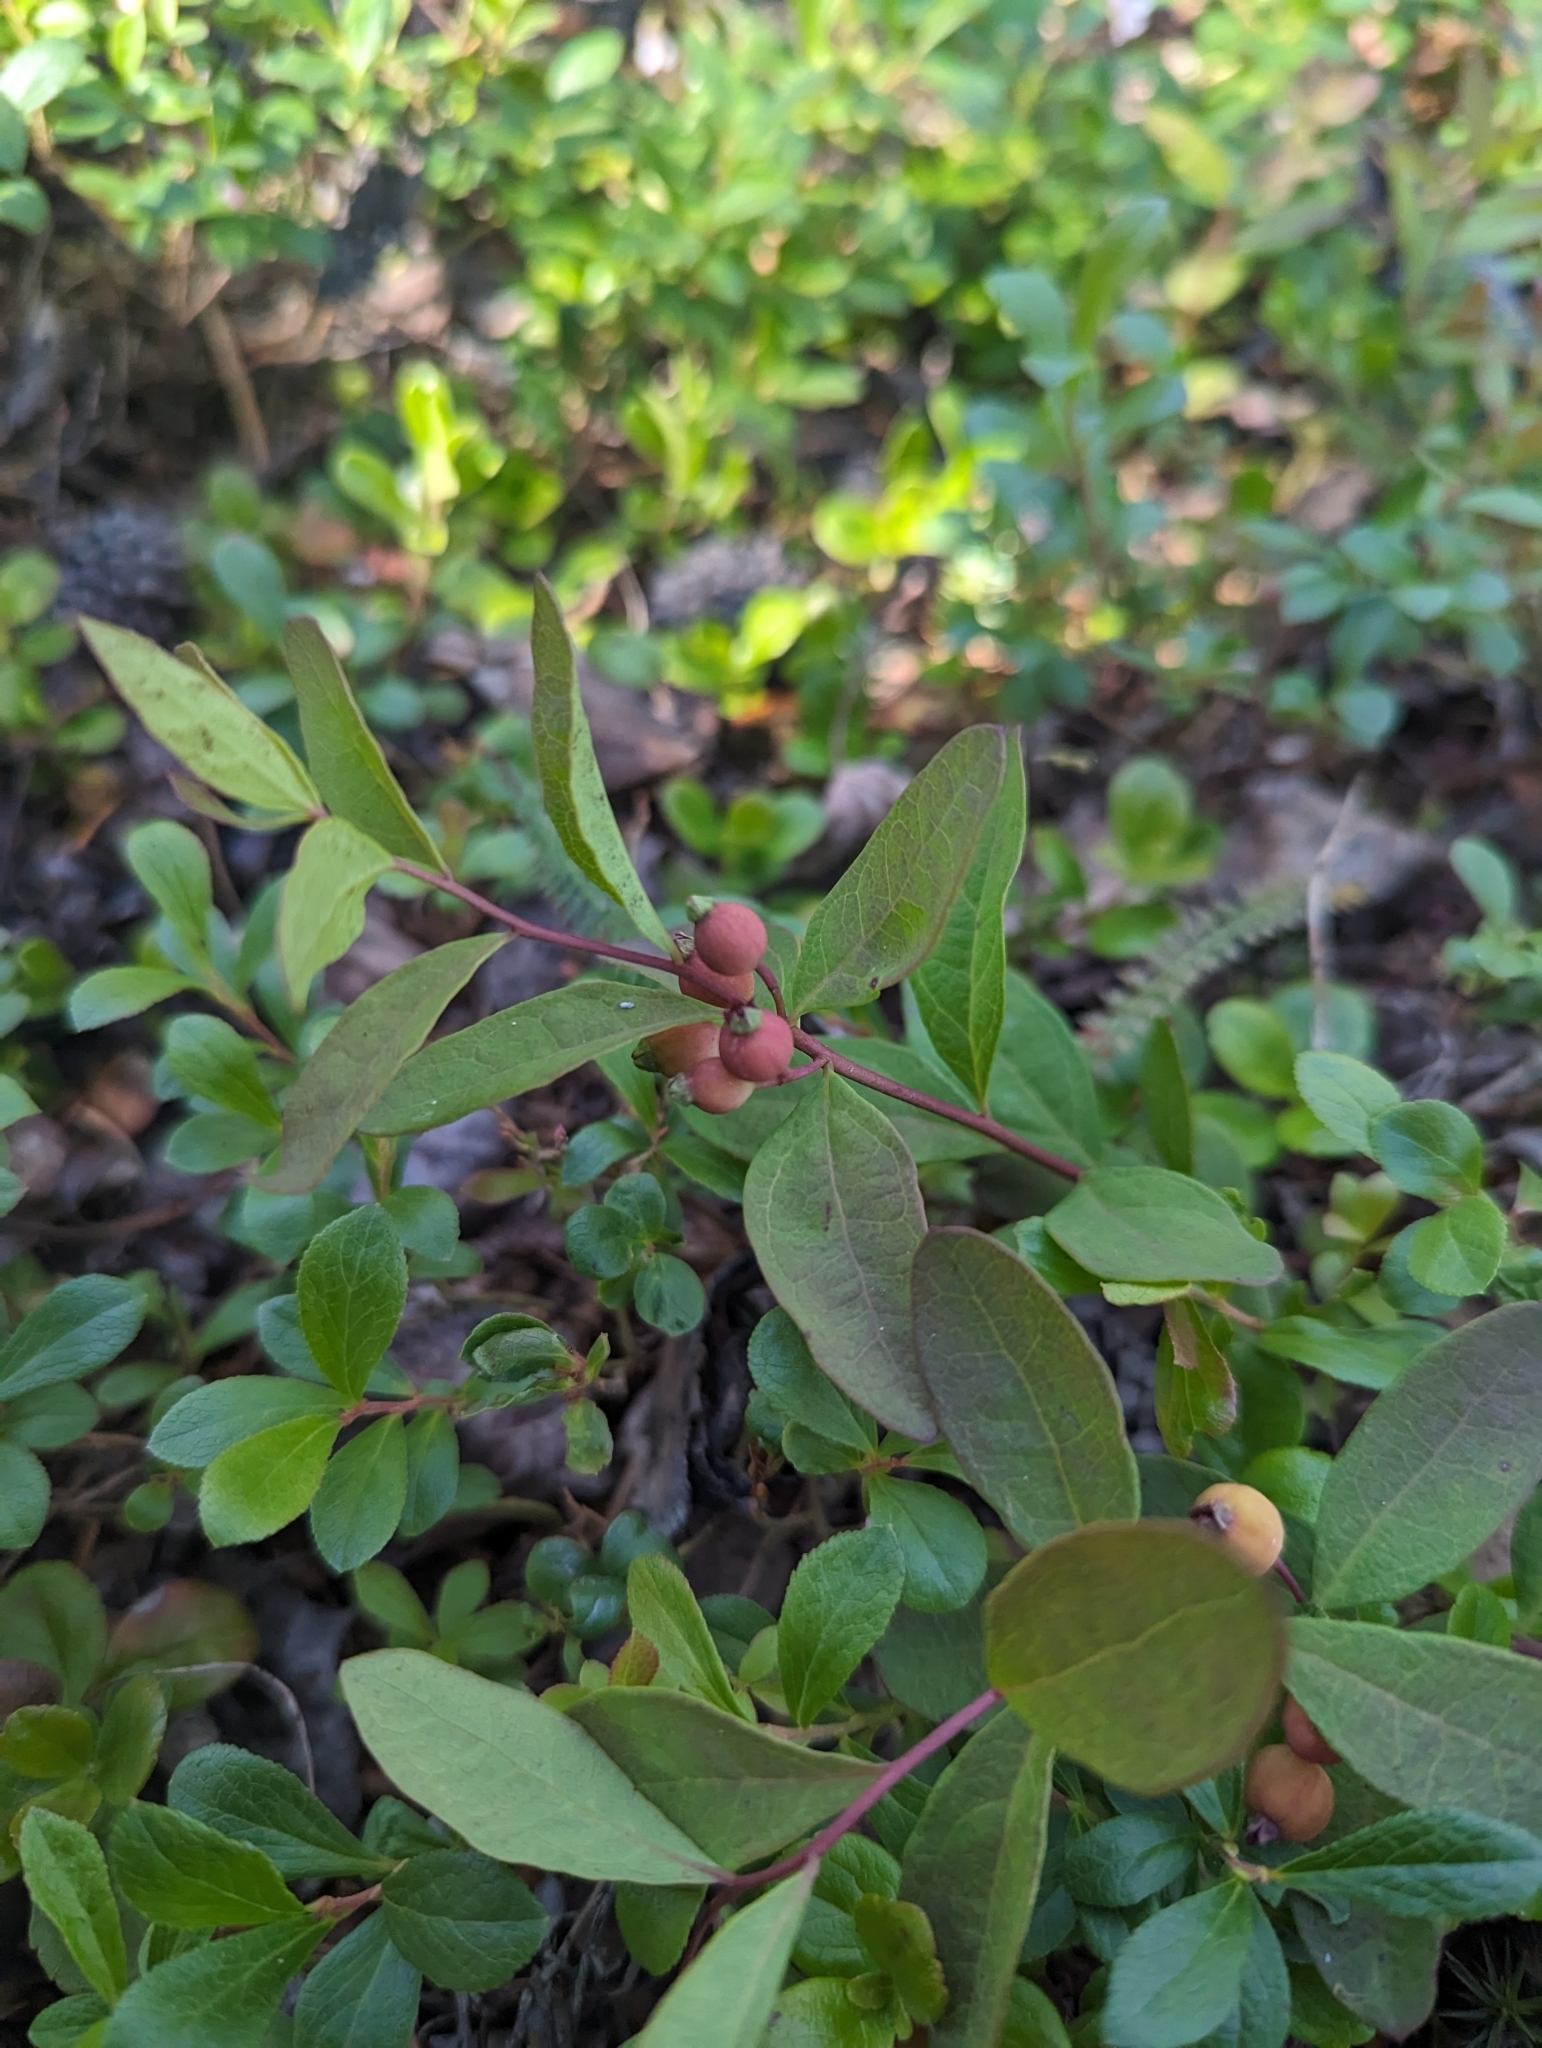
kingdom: Plantae
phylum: Tracheophyta
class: Magnoliopsida
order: Santalales
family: Comandraceae
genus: Geocaulon
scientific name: Geocaulon lividum
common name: Earthberry
